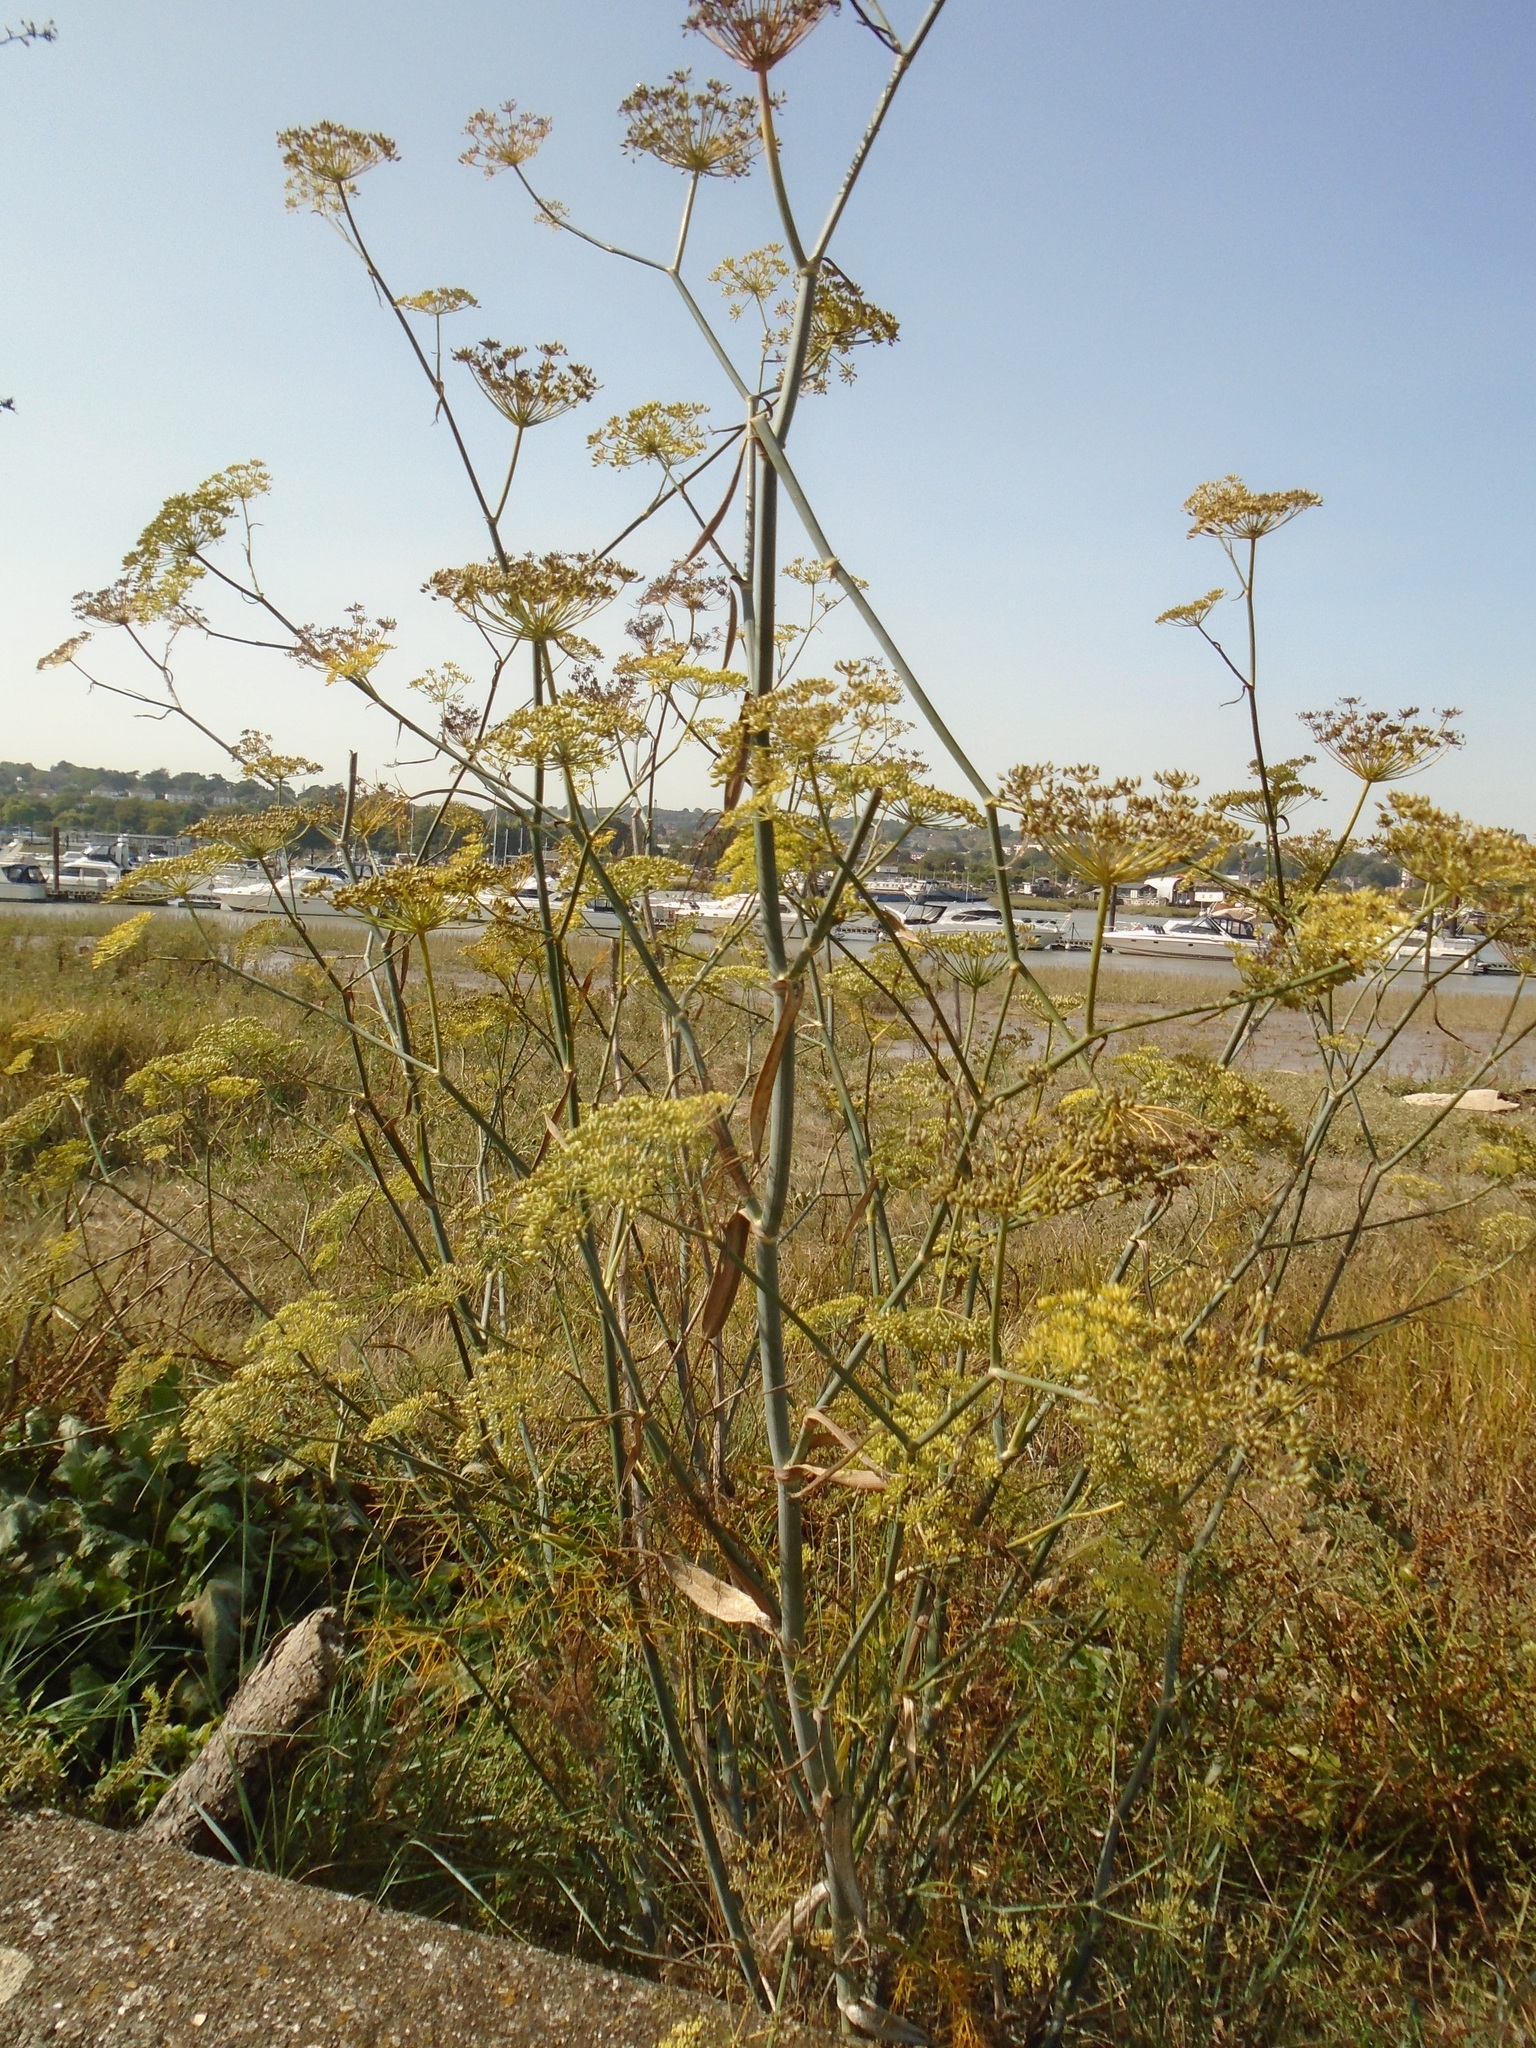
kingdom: Plantae
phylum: Tracheophyta
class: Magnoliopsida
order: Apiales
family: Apiaceae
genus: Foeniculum
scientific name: Foeniculum vulgare
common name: Fennel
